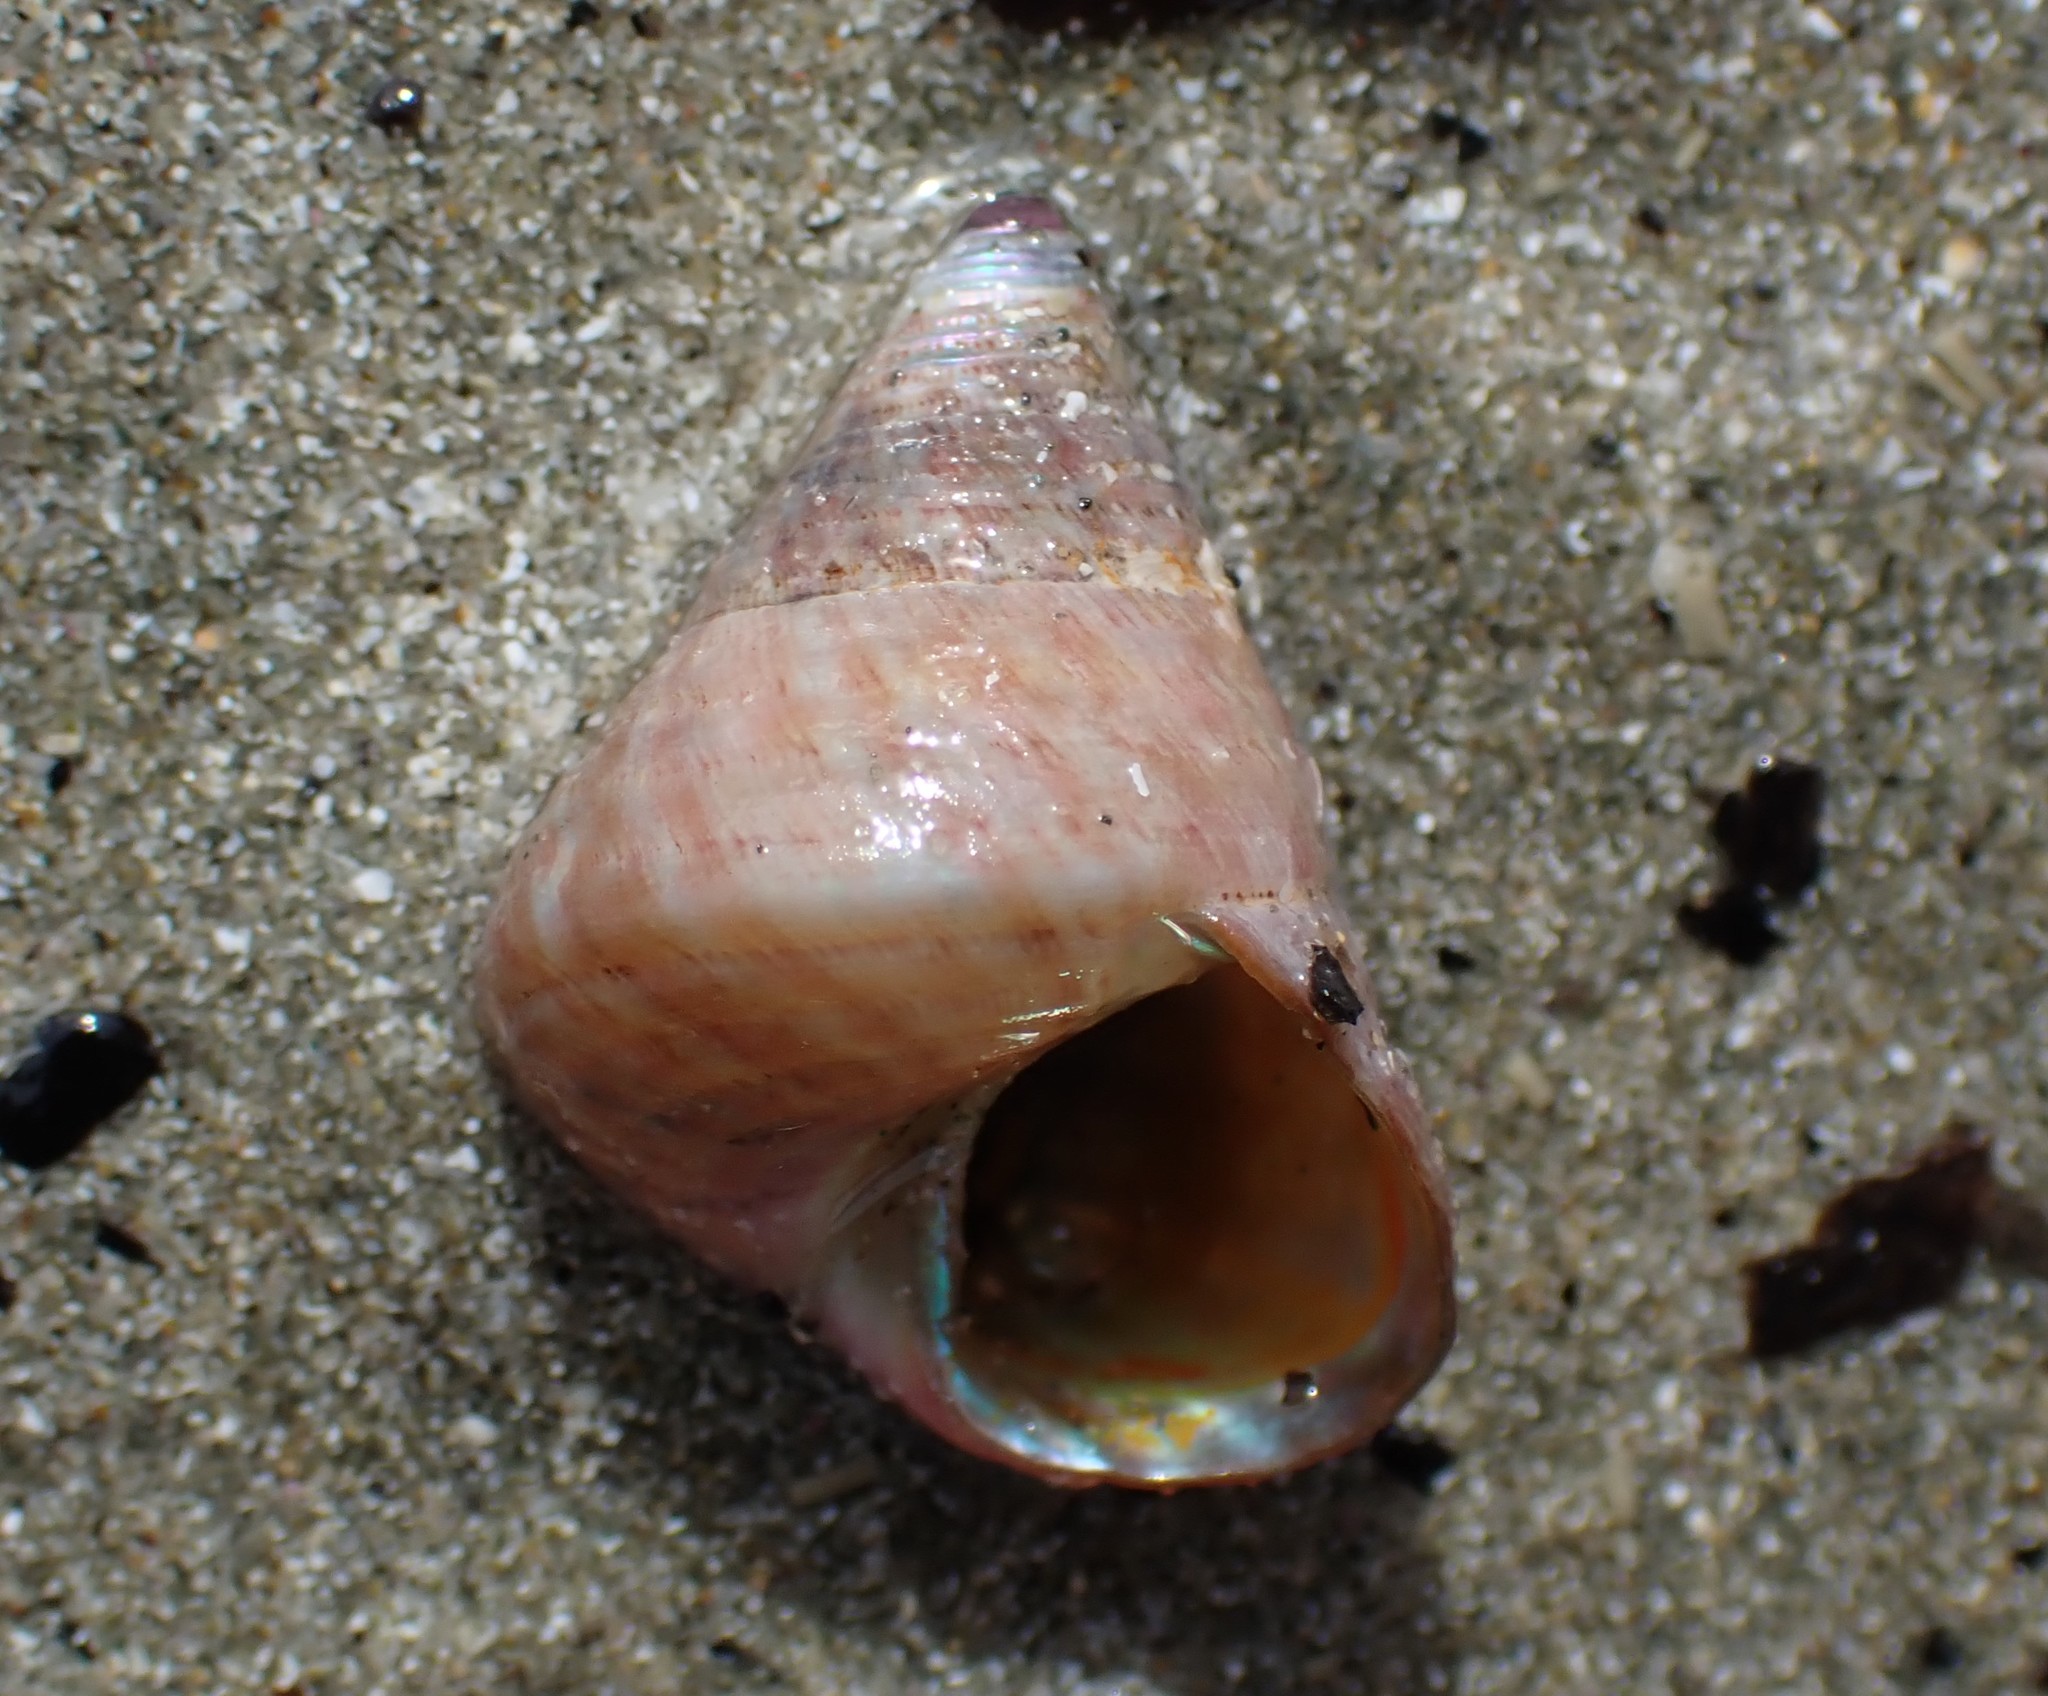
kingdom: Animalia
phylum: Mollusca
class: Gastropoda
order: Trochida
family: Trochidae
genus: Micrelenchus
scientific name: Micrelenchus purpureus
